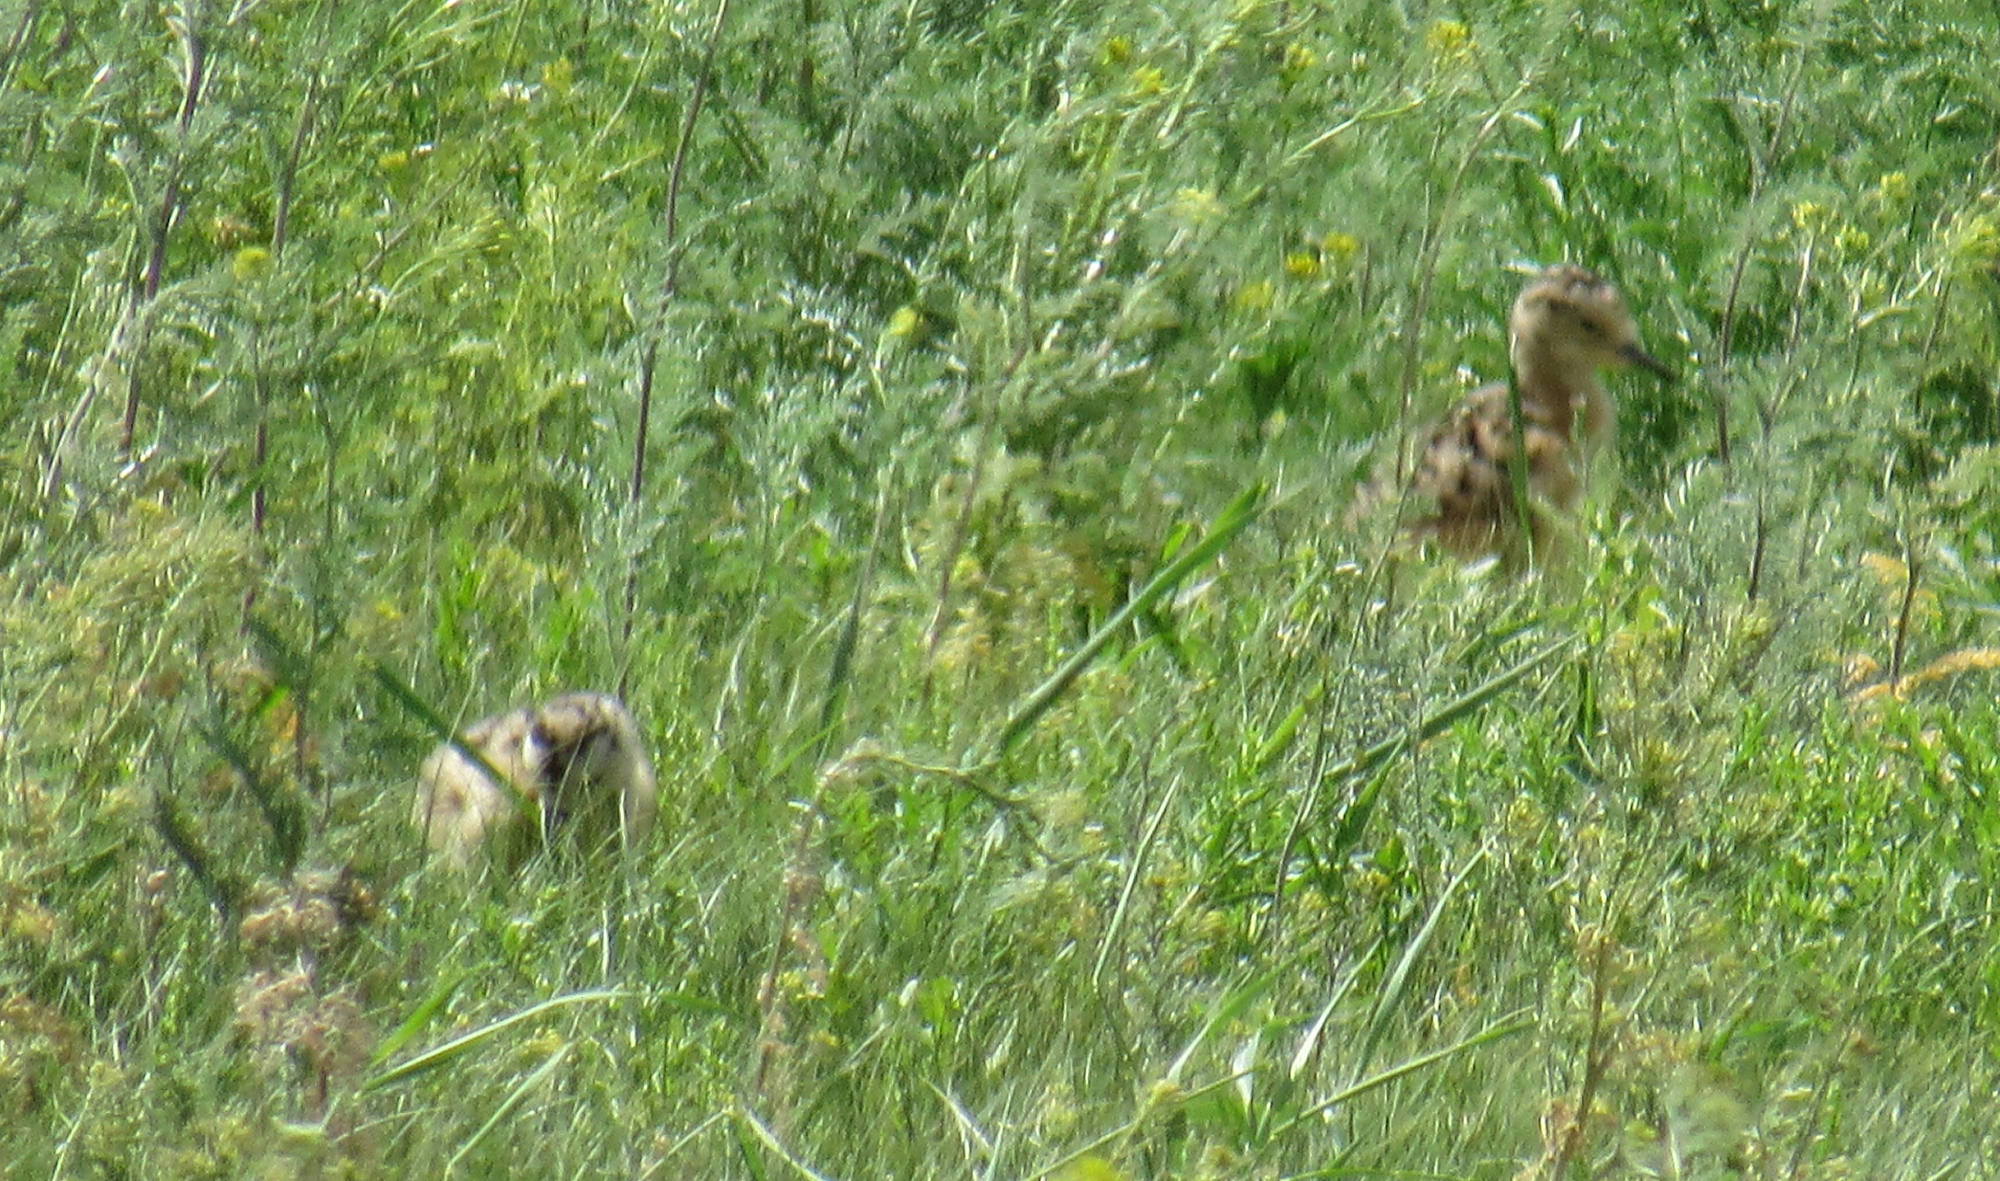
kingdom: Animalia
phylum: Chordata
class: Aves
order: Charadriiformes
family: Scolopacidae
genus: Numenius
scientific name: Numenius americanus
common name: Long-billed curlew
